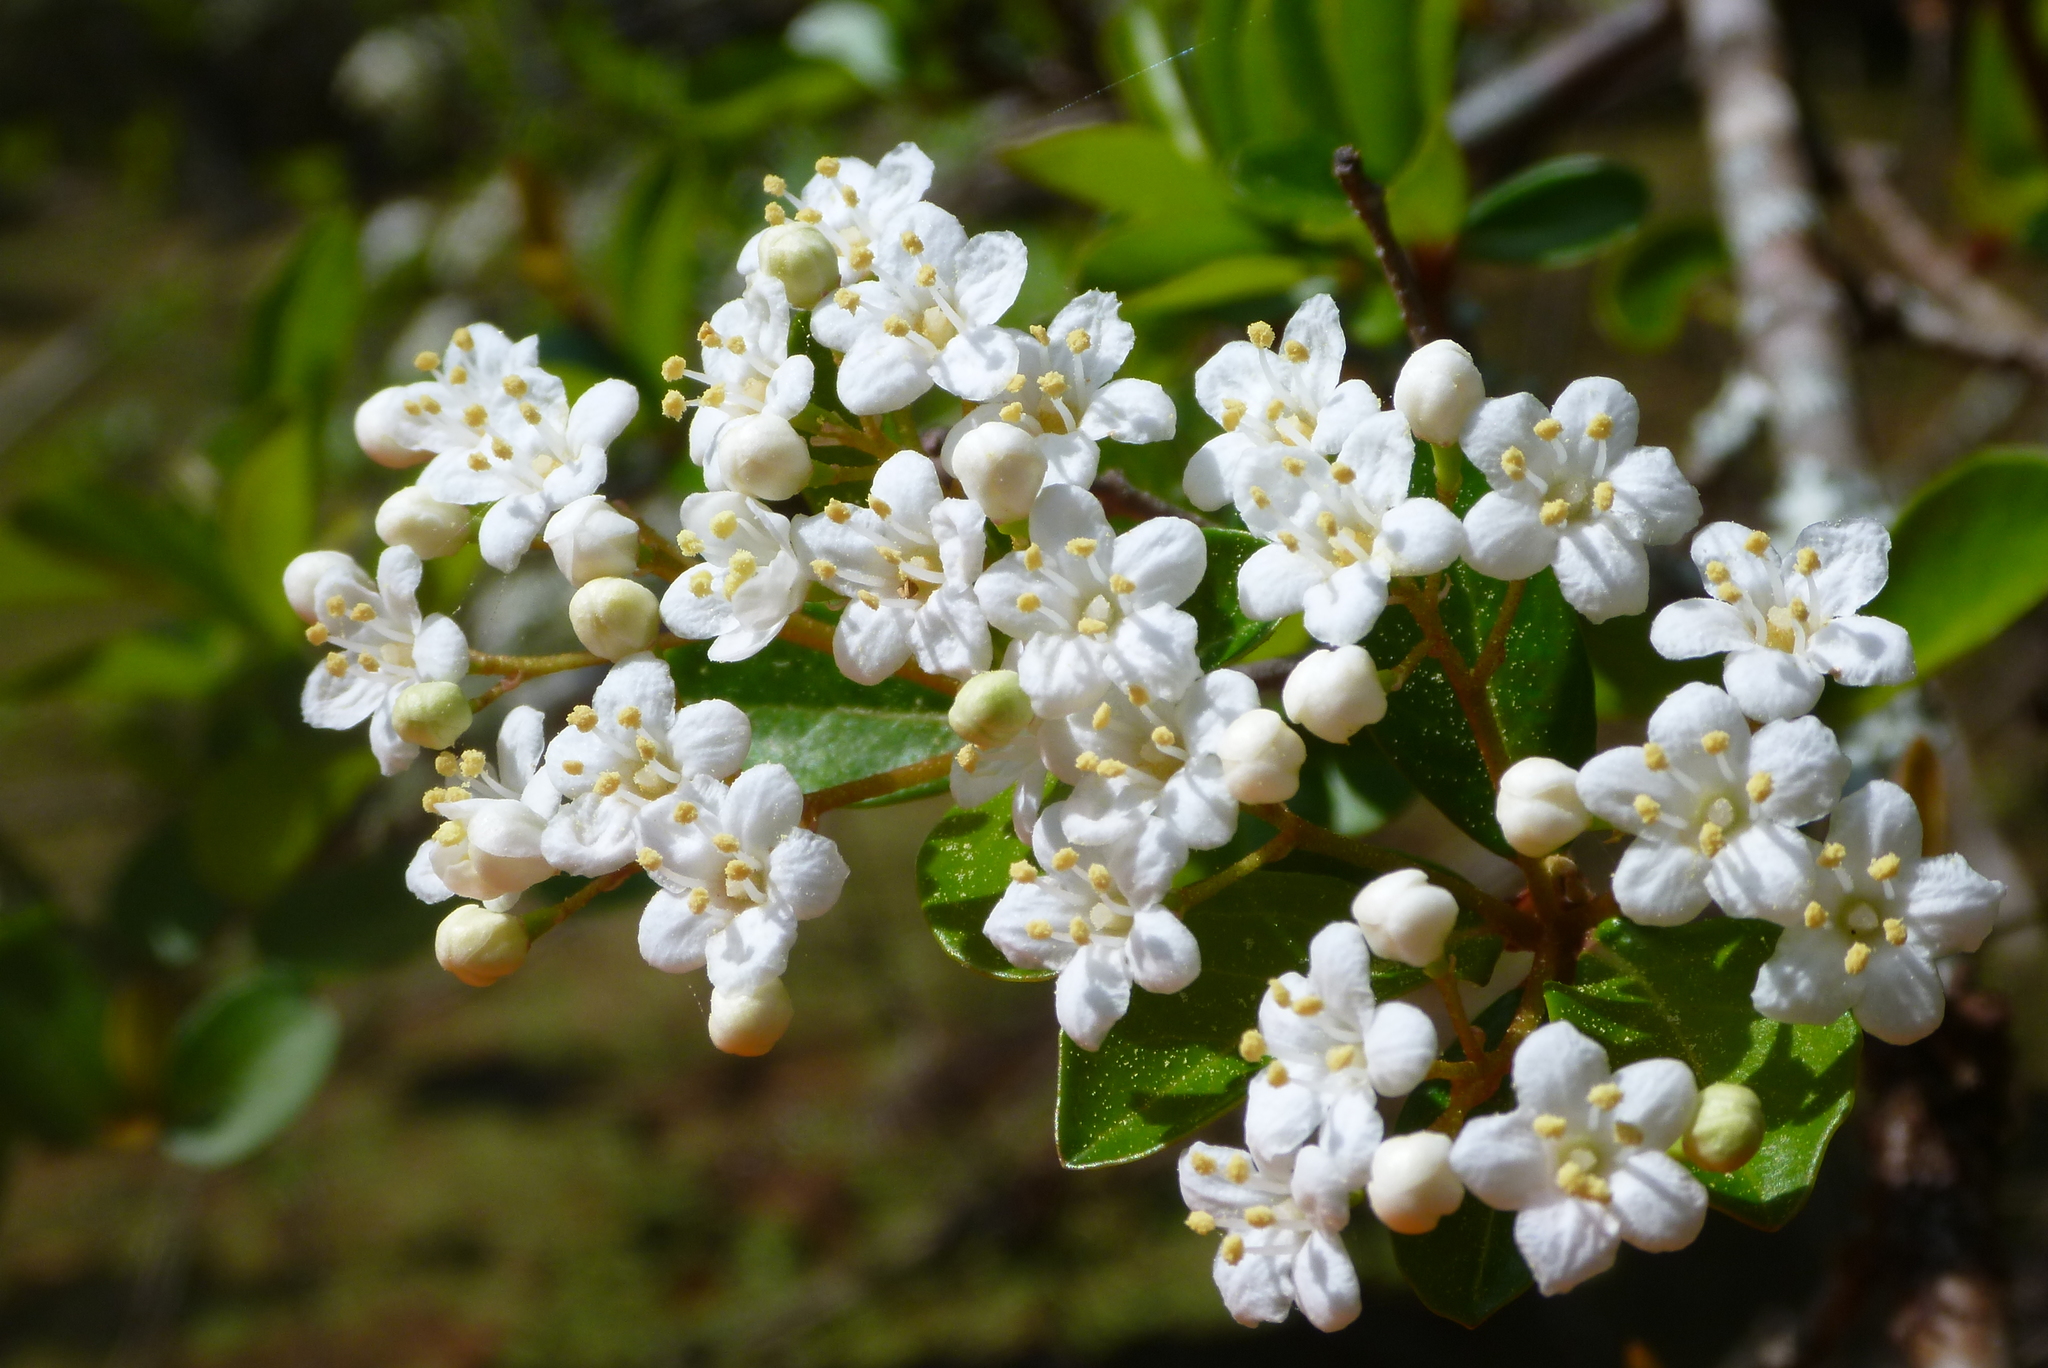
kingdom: Plantae
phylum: Tracheophyta
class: Magnoliopsida
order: Dipsacales
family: Viburnaceae
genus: Viburnum
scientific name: Viburnum obovatum
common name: Walter's viburnum
